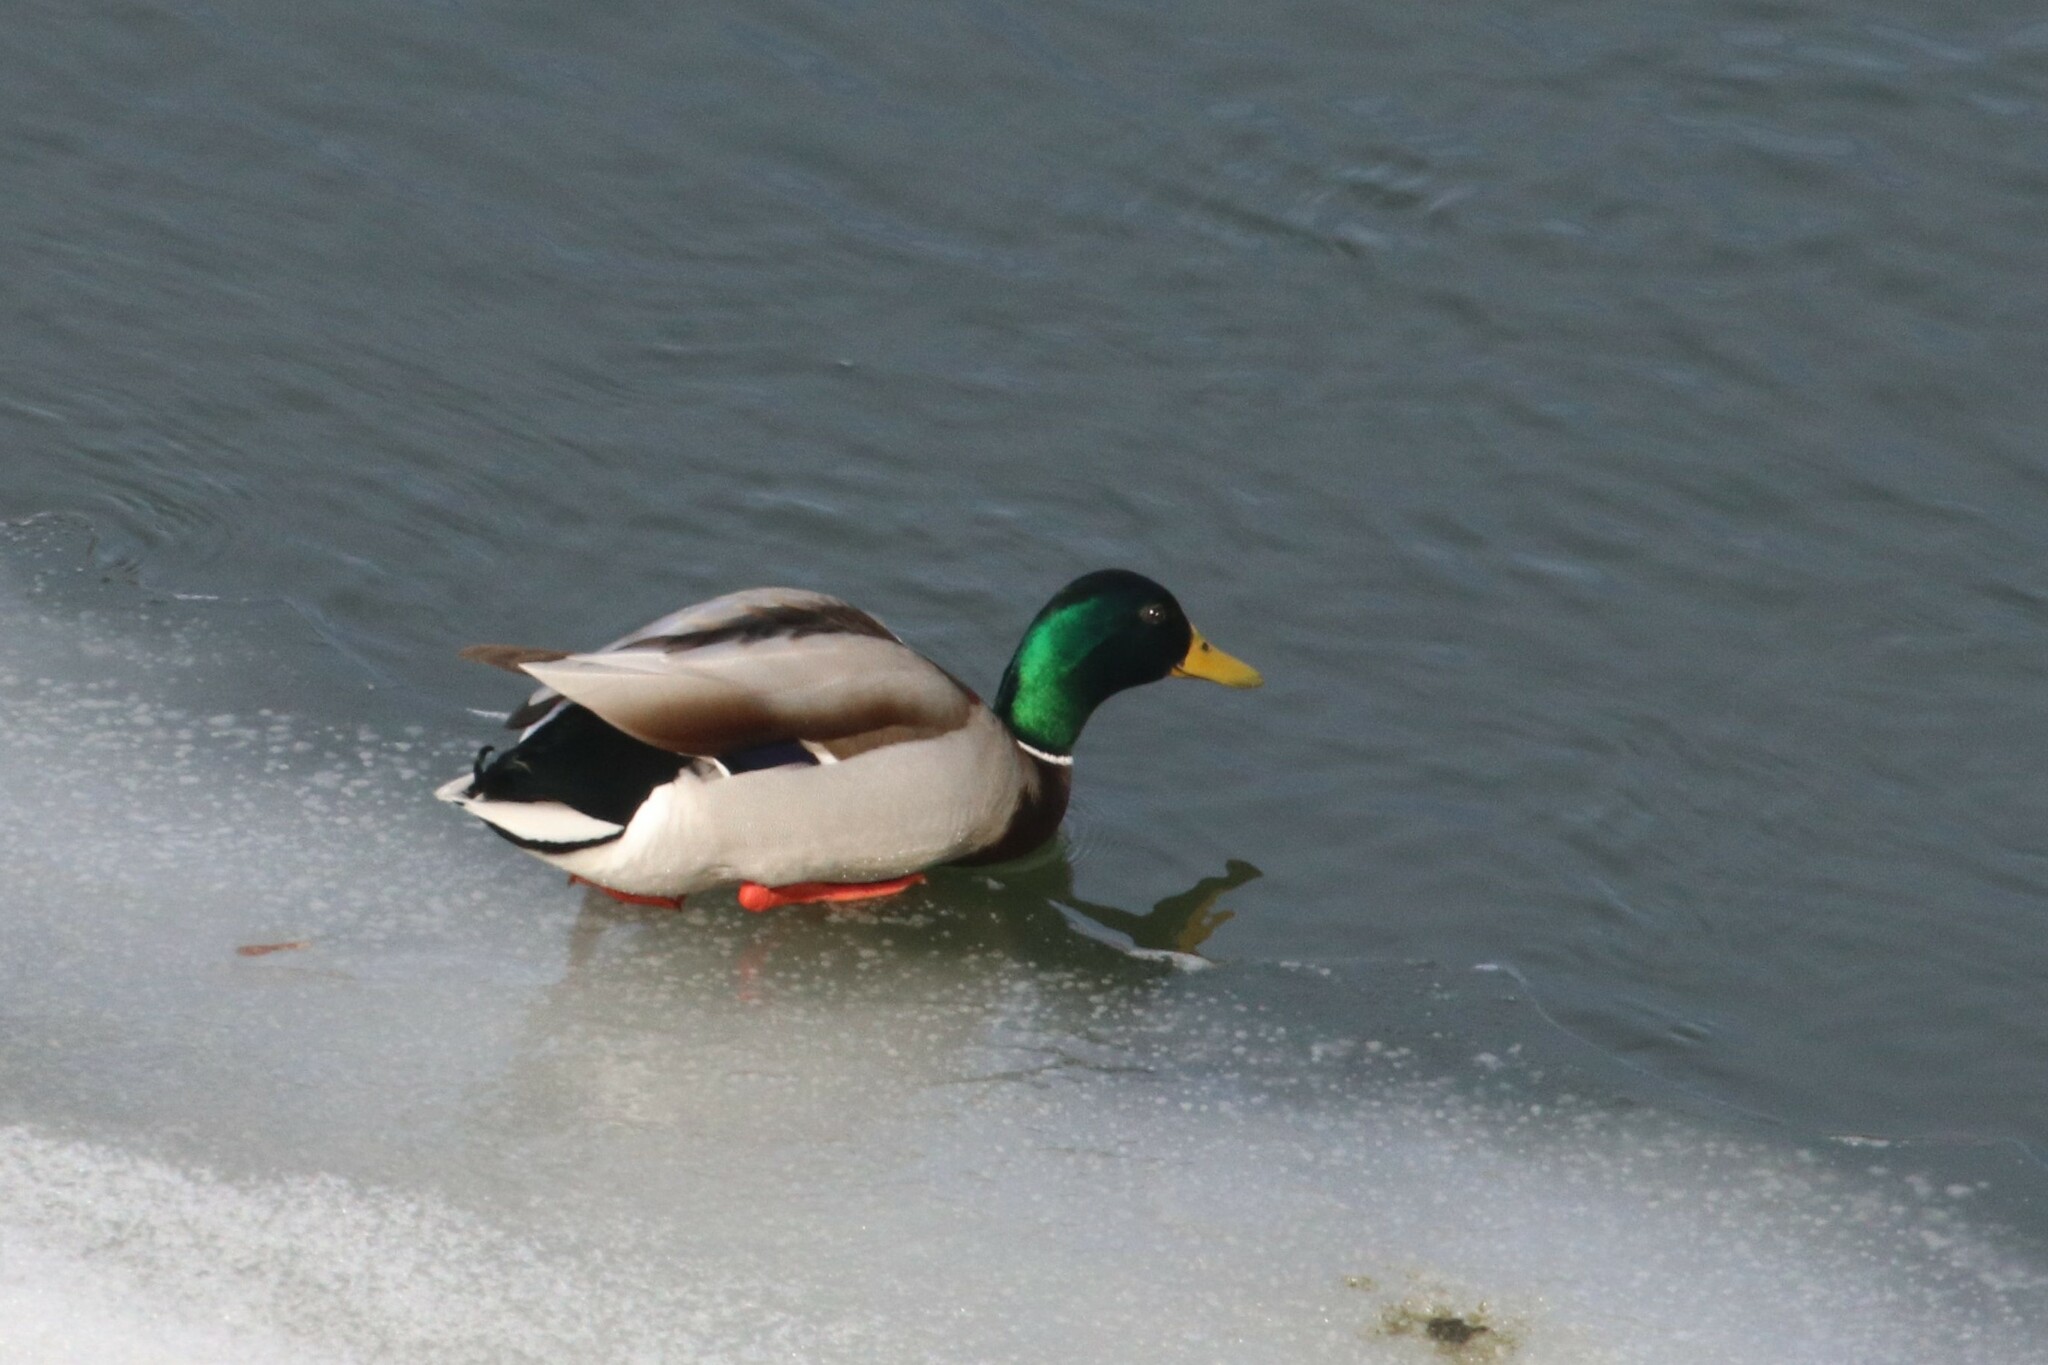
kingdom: Animalia
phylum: Chordata
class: Aves
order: Anseriformes
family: Anatidae
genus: Anas
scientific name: Anas platyrhynchos
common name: Mallard
